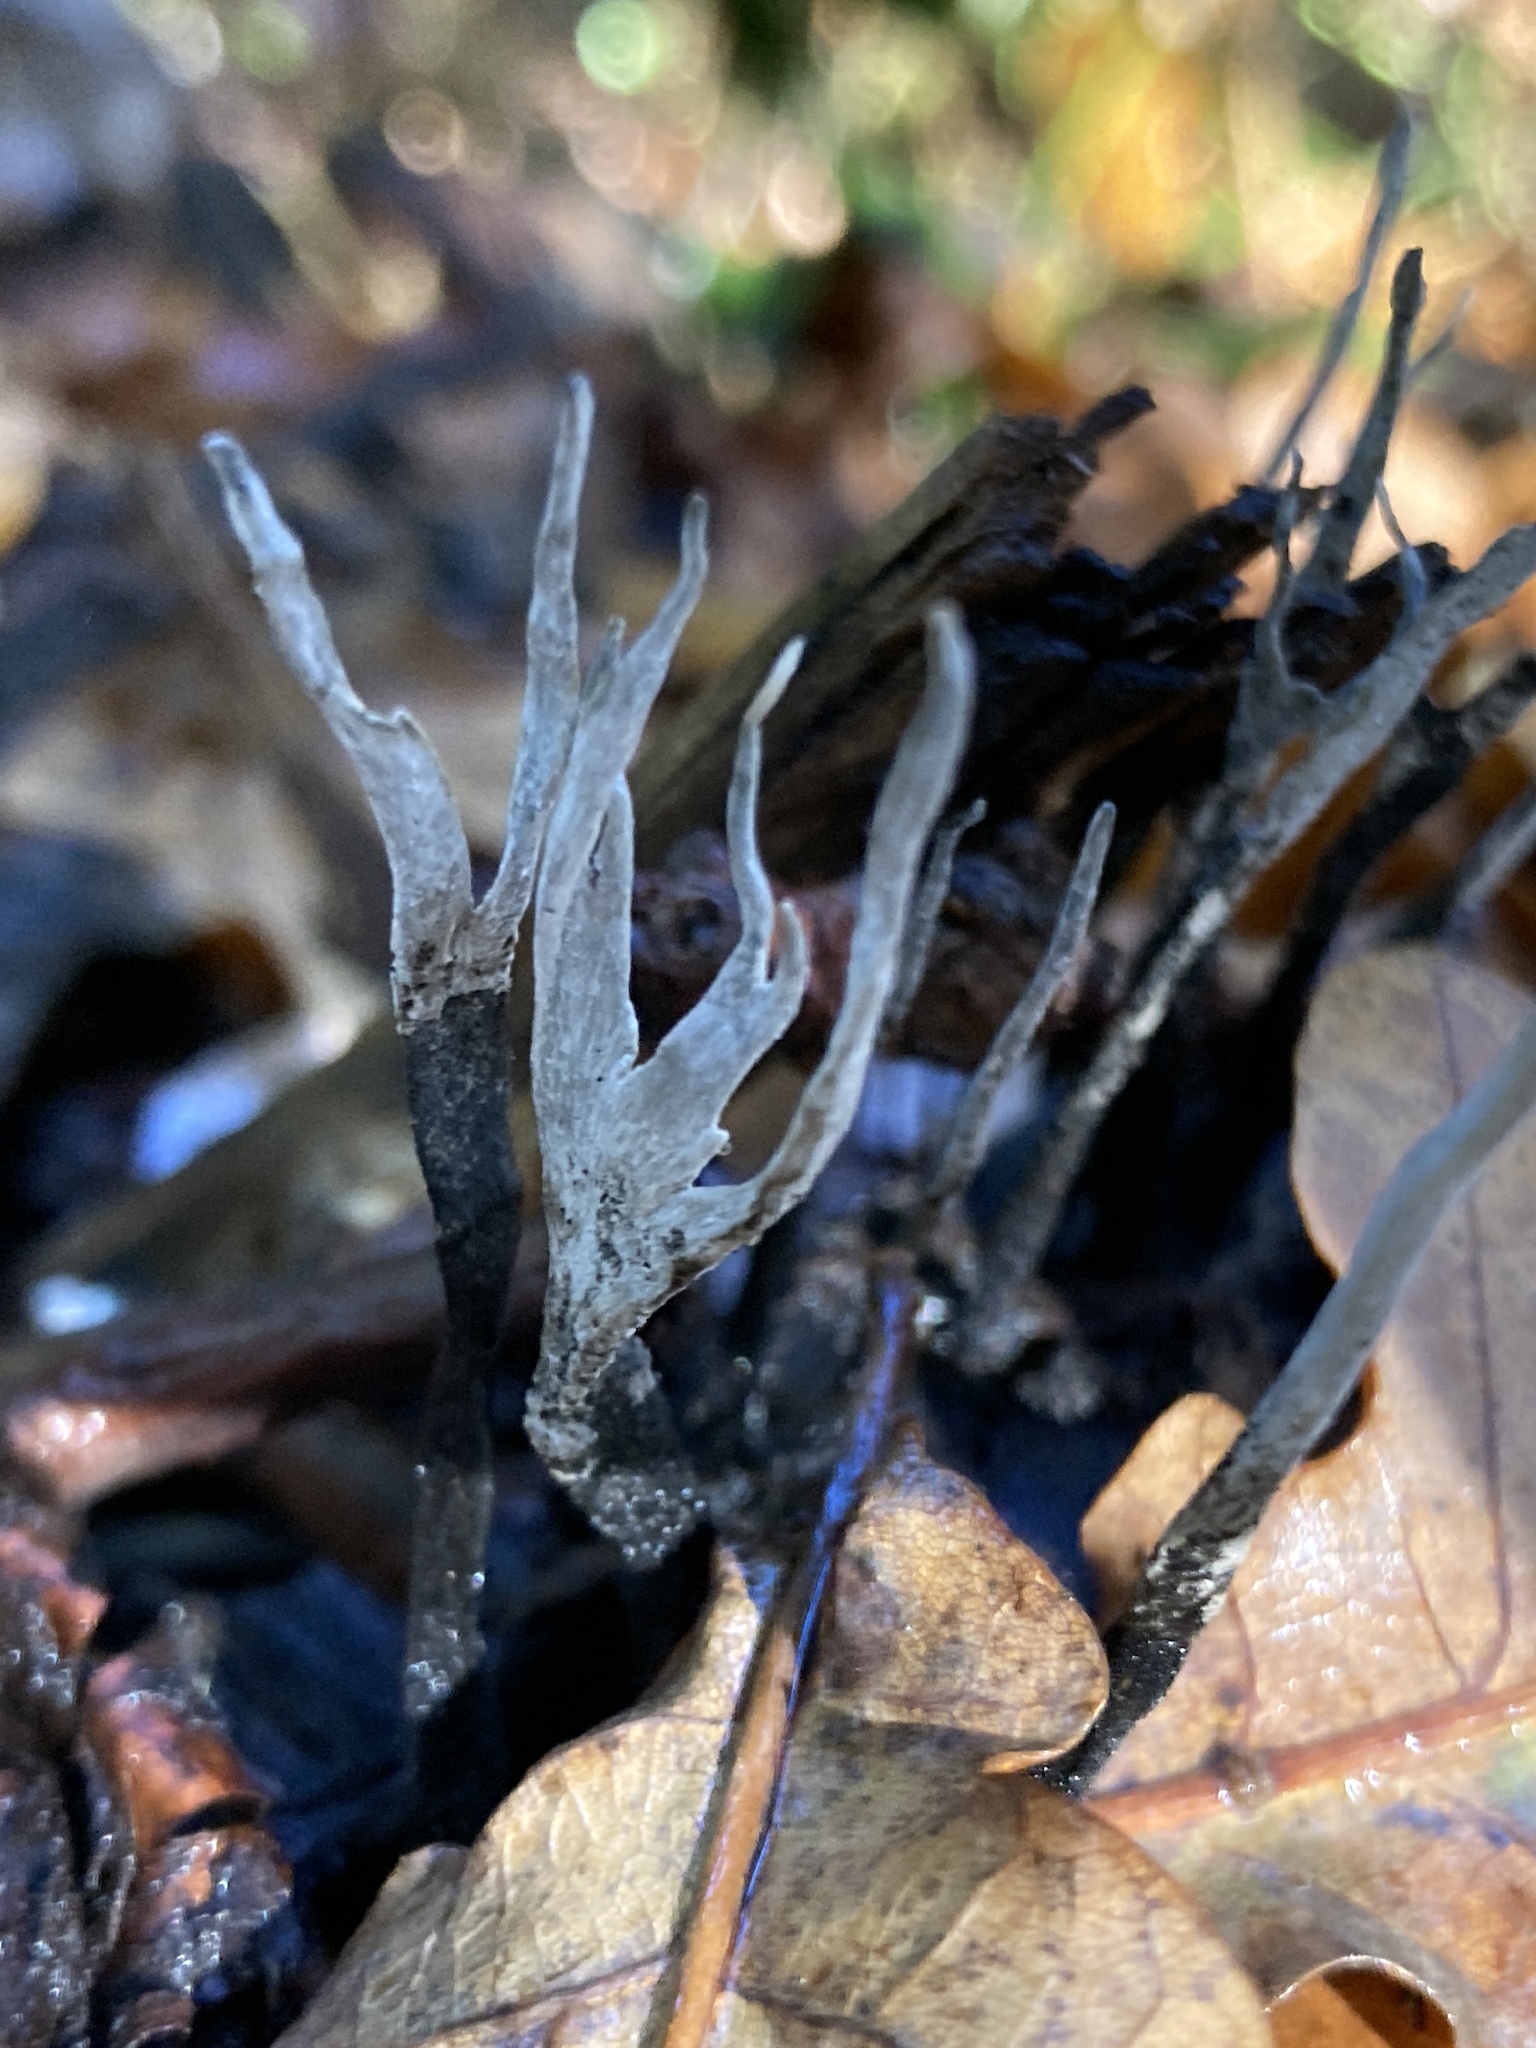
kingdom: Fungi
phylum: Ascomycota
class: Sordariomycetes
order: Xylariales
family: Xylariaceae
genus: Xylaria
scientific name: Xylaria hypoxylon
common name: Candle-snuff fungus
